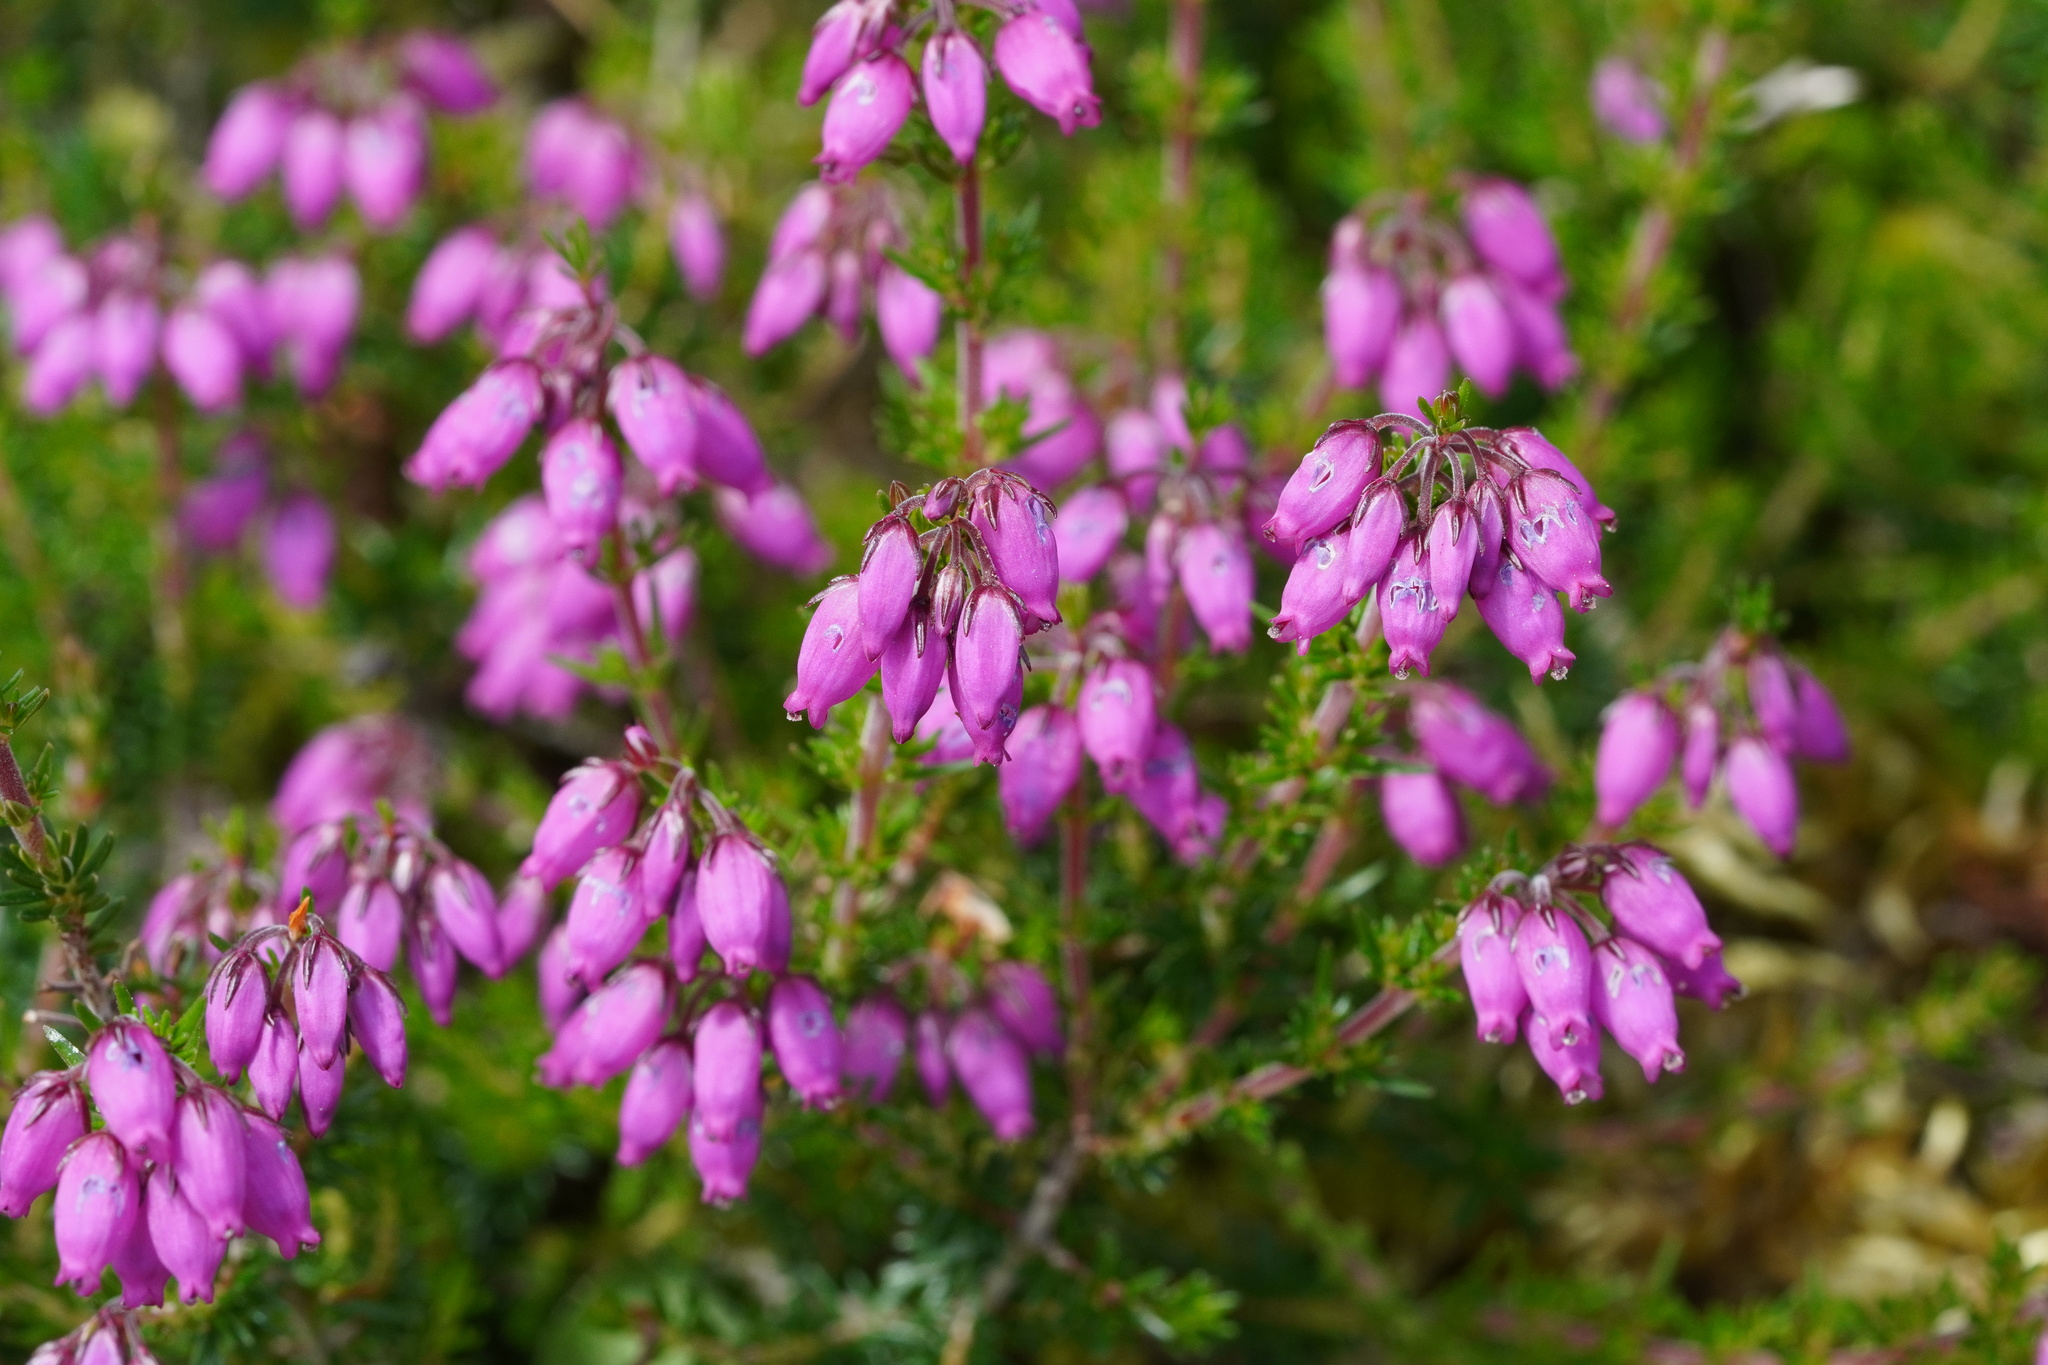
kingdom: Plantae
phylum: Tracheophyta
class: Magnoliopsida
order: Ericales
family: Ericaceae
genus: Erica
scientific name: Erica cinerea
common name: Bell heather
